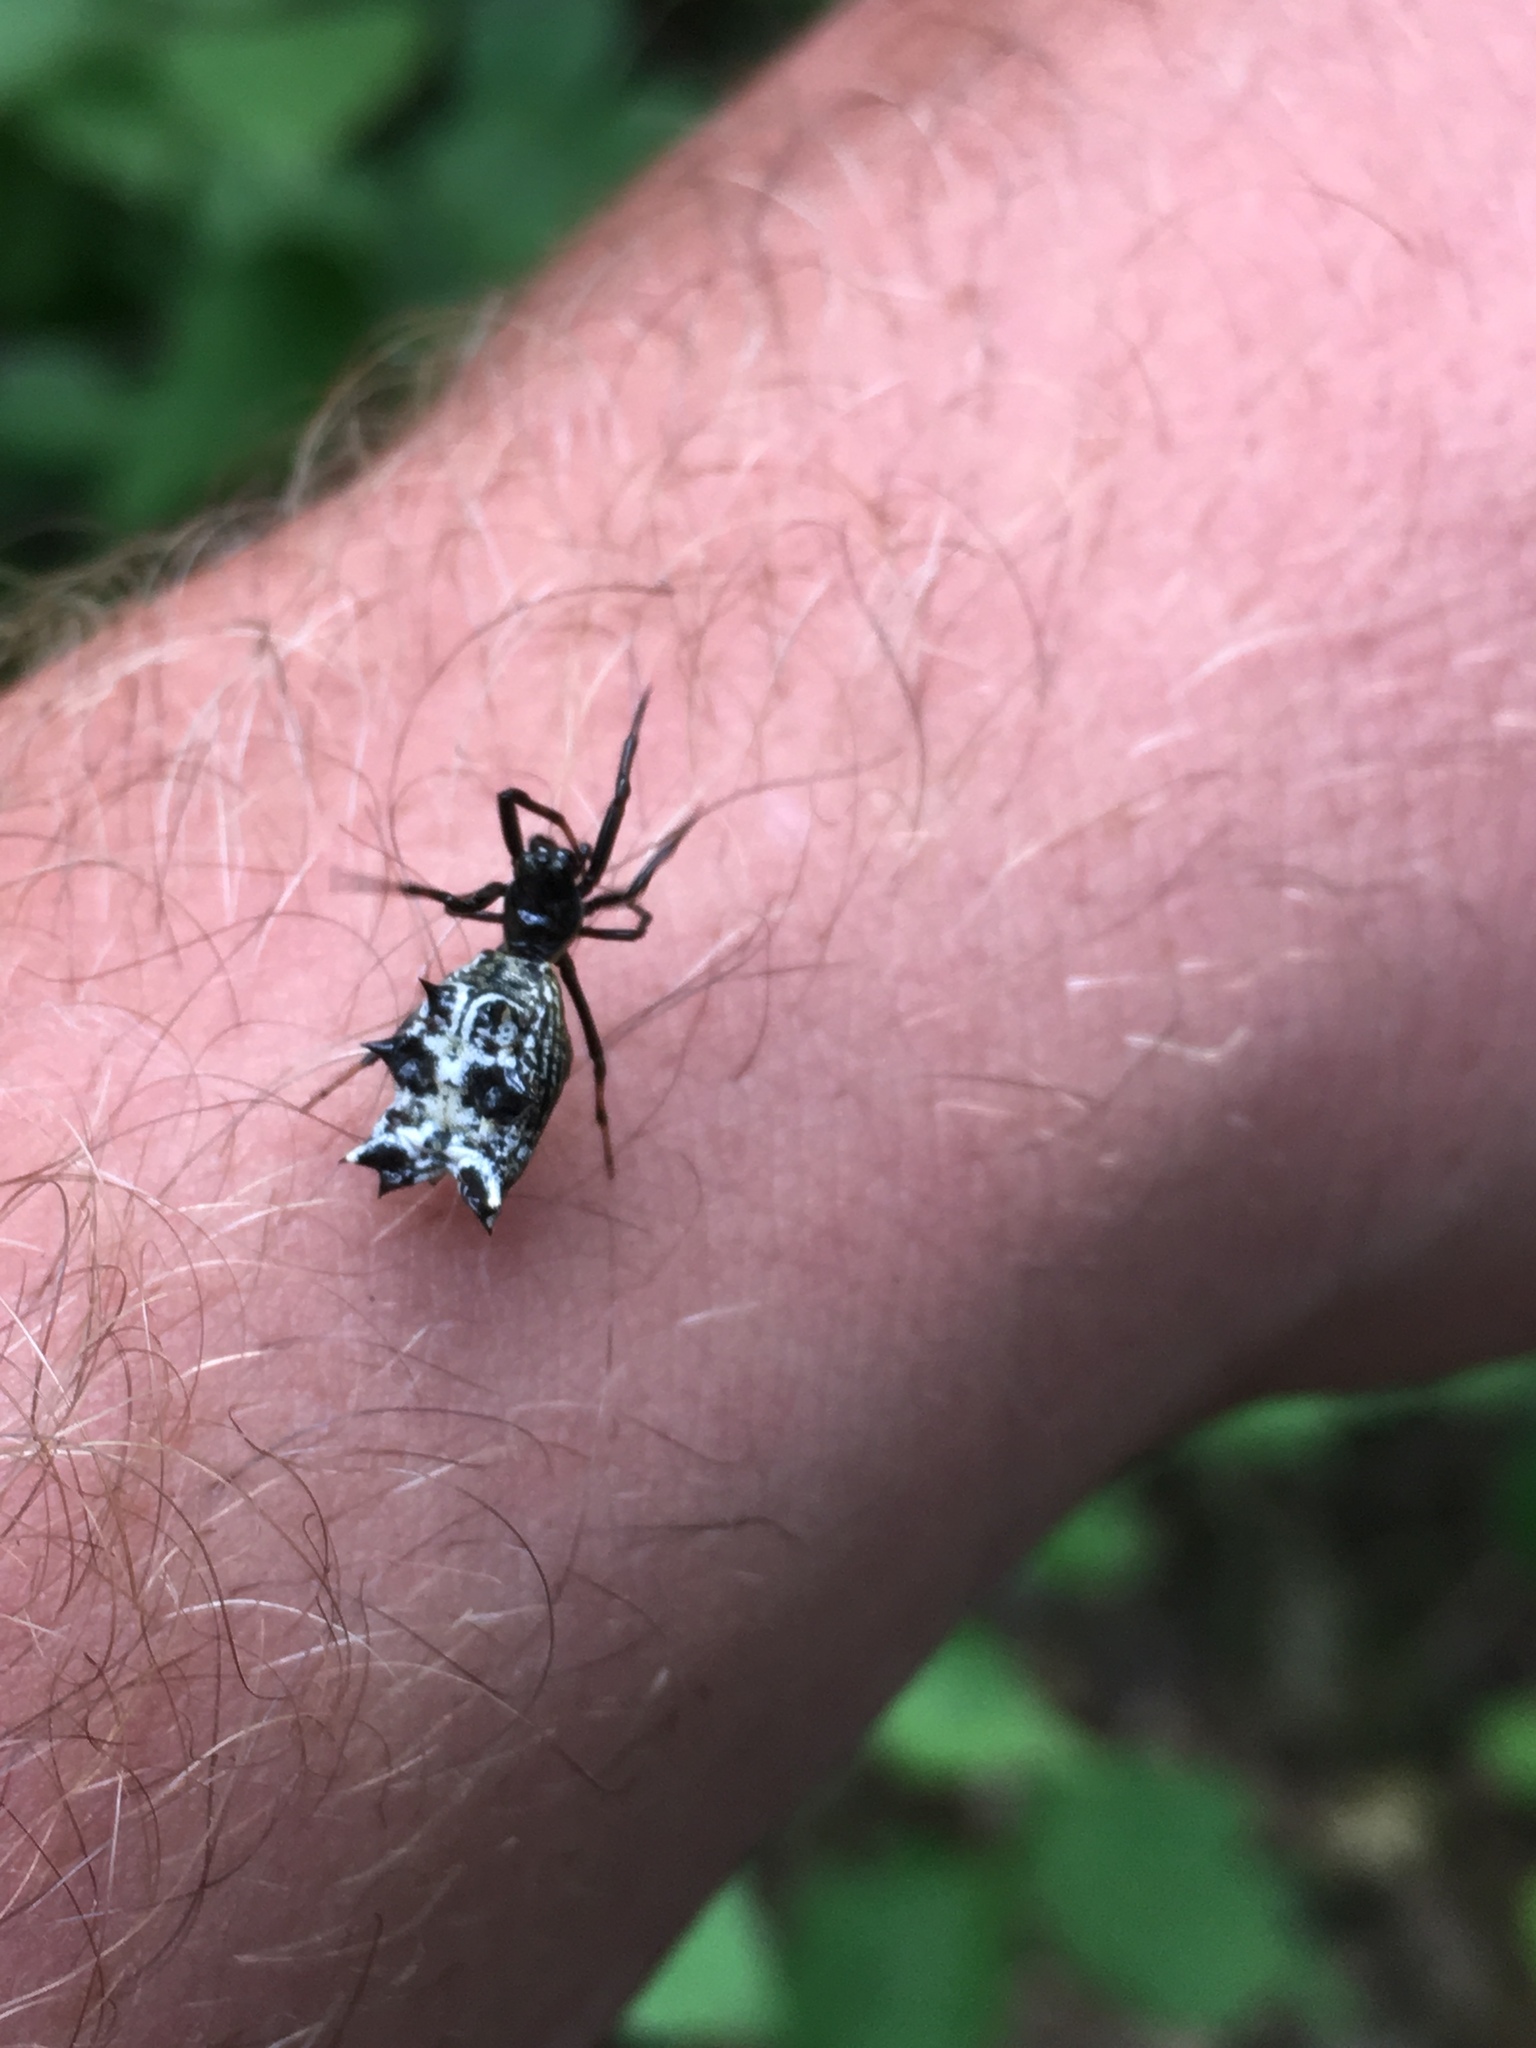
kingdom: Animalia
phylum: Arthropoda
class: Arachnida
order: Araneae
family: Araneidae
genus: Micrathena
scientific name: Micrathena gracilis
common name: Orb weavers
